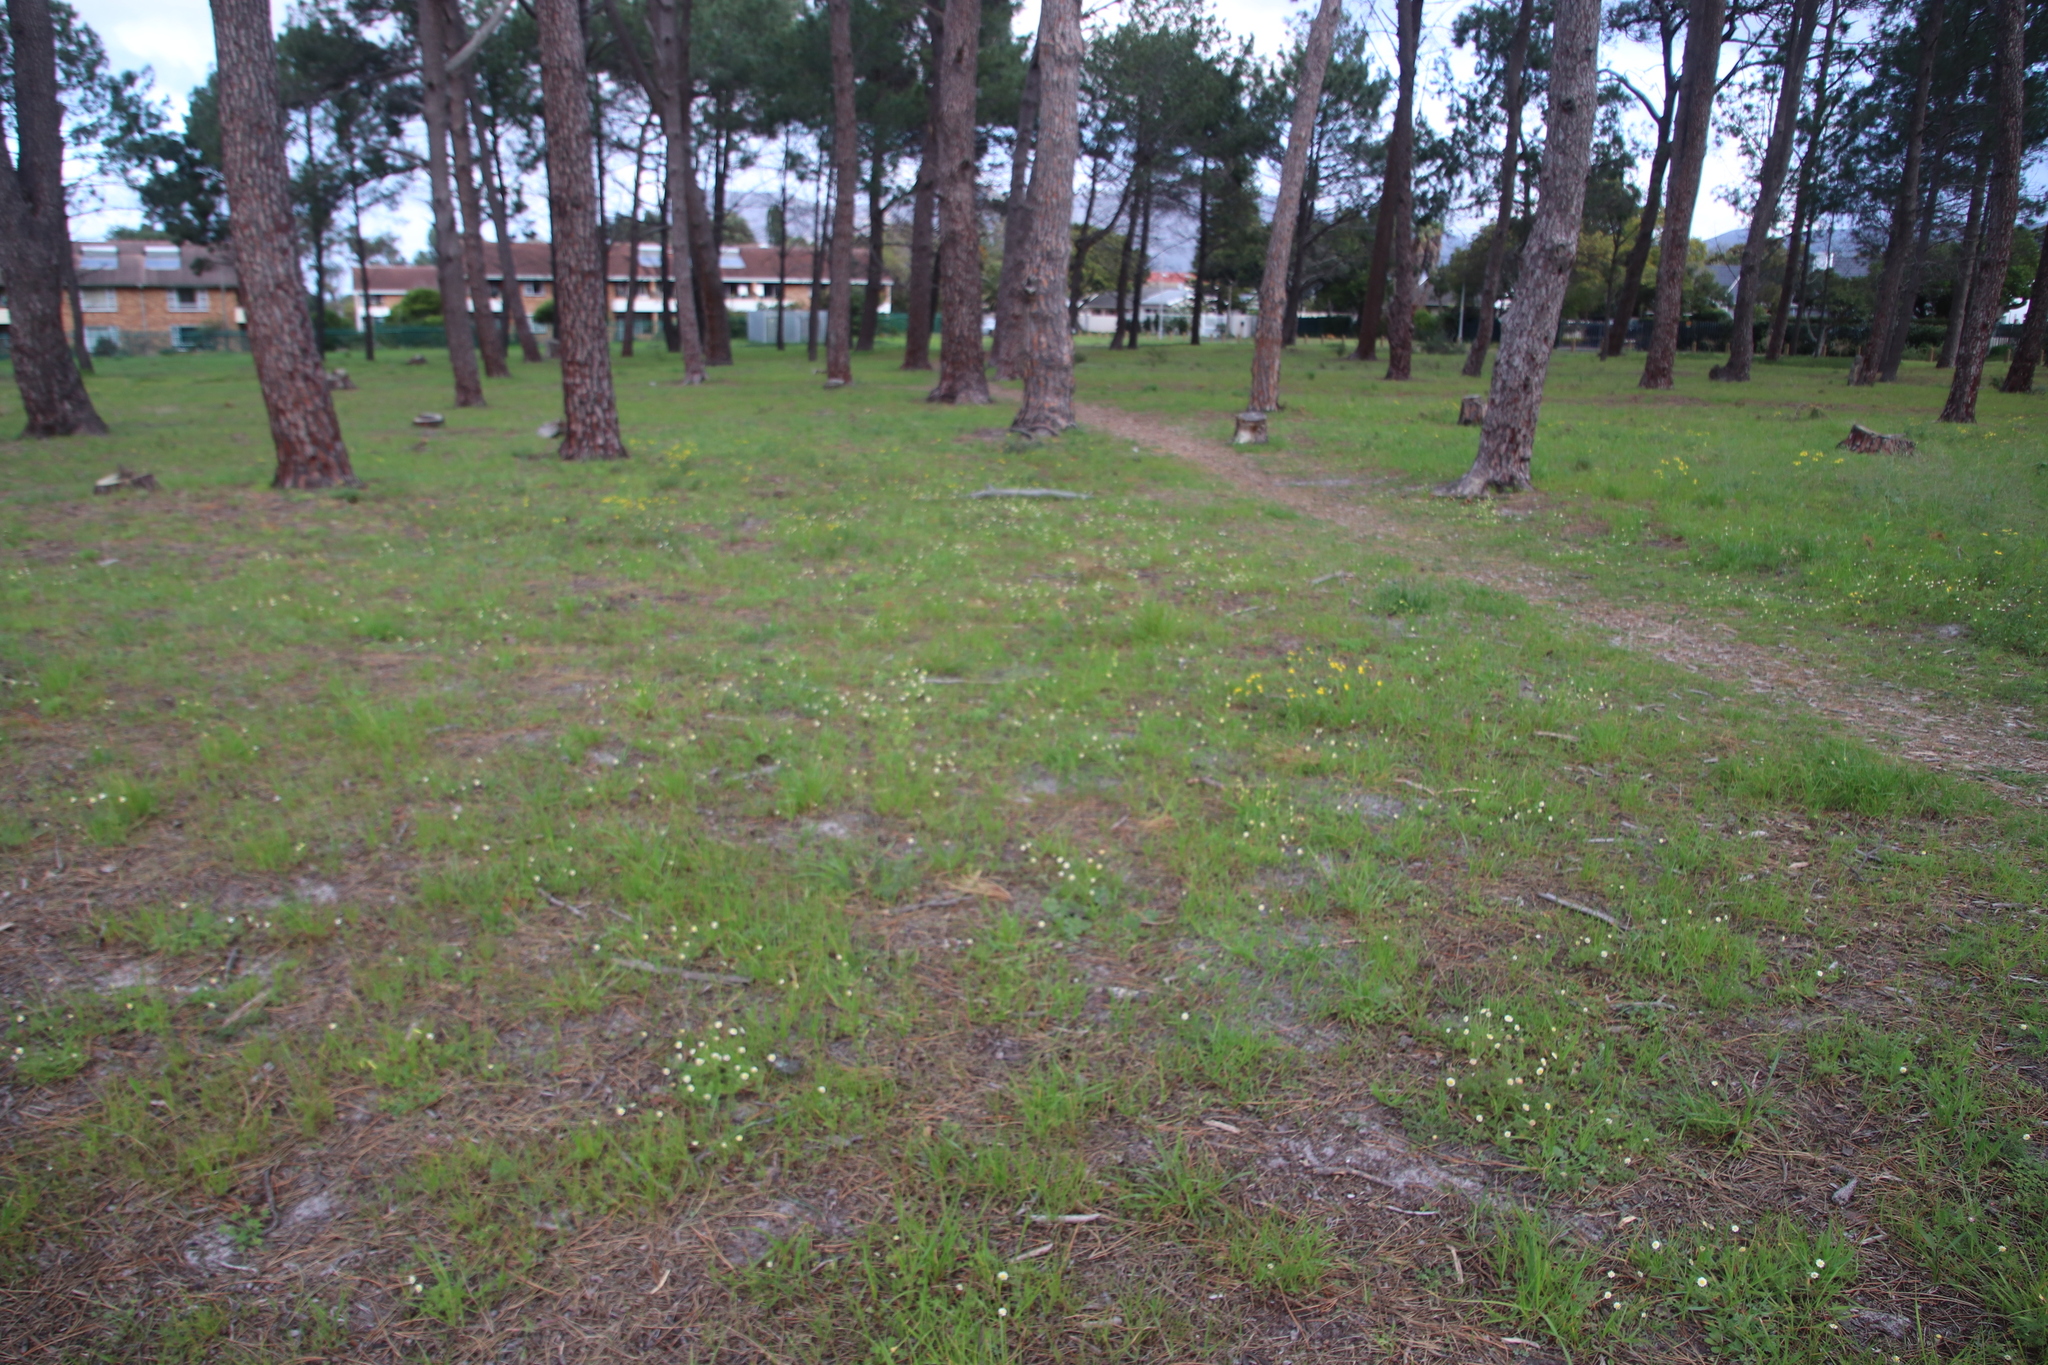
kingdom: Plantae
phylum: Tracheophyta
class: Magnoliopsida
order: Asterales
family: Asteraceae
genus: Cotula
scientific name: Cotula turbinata
